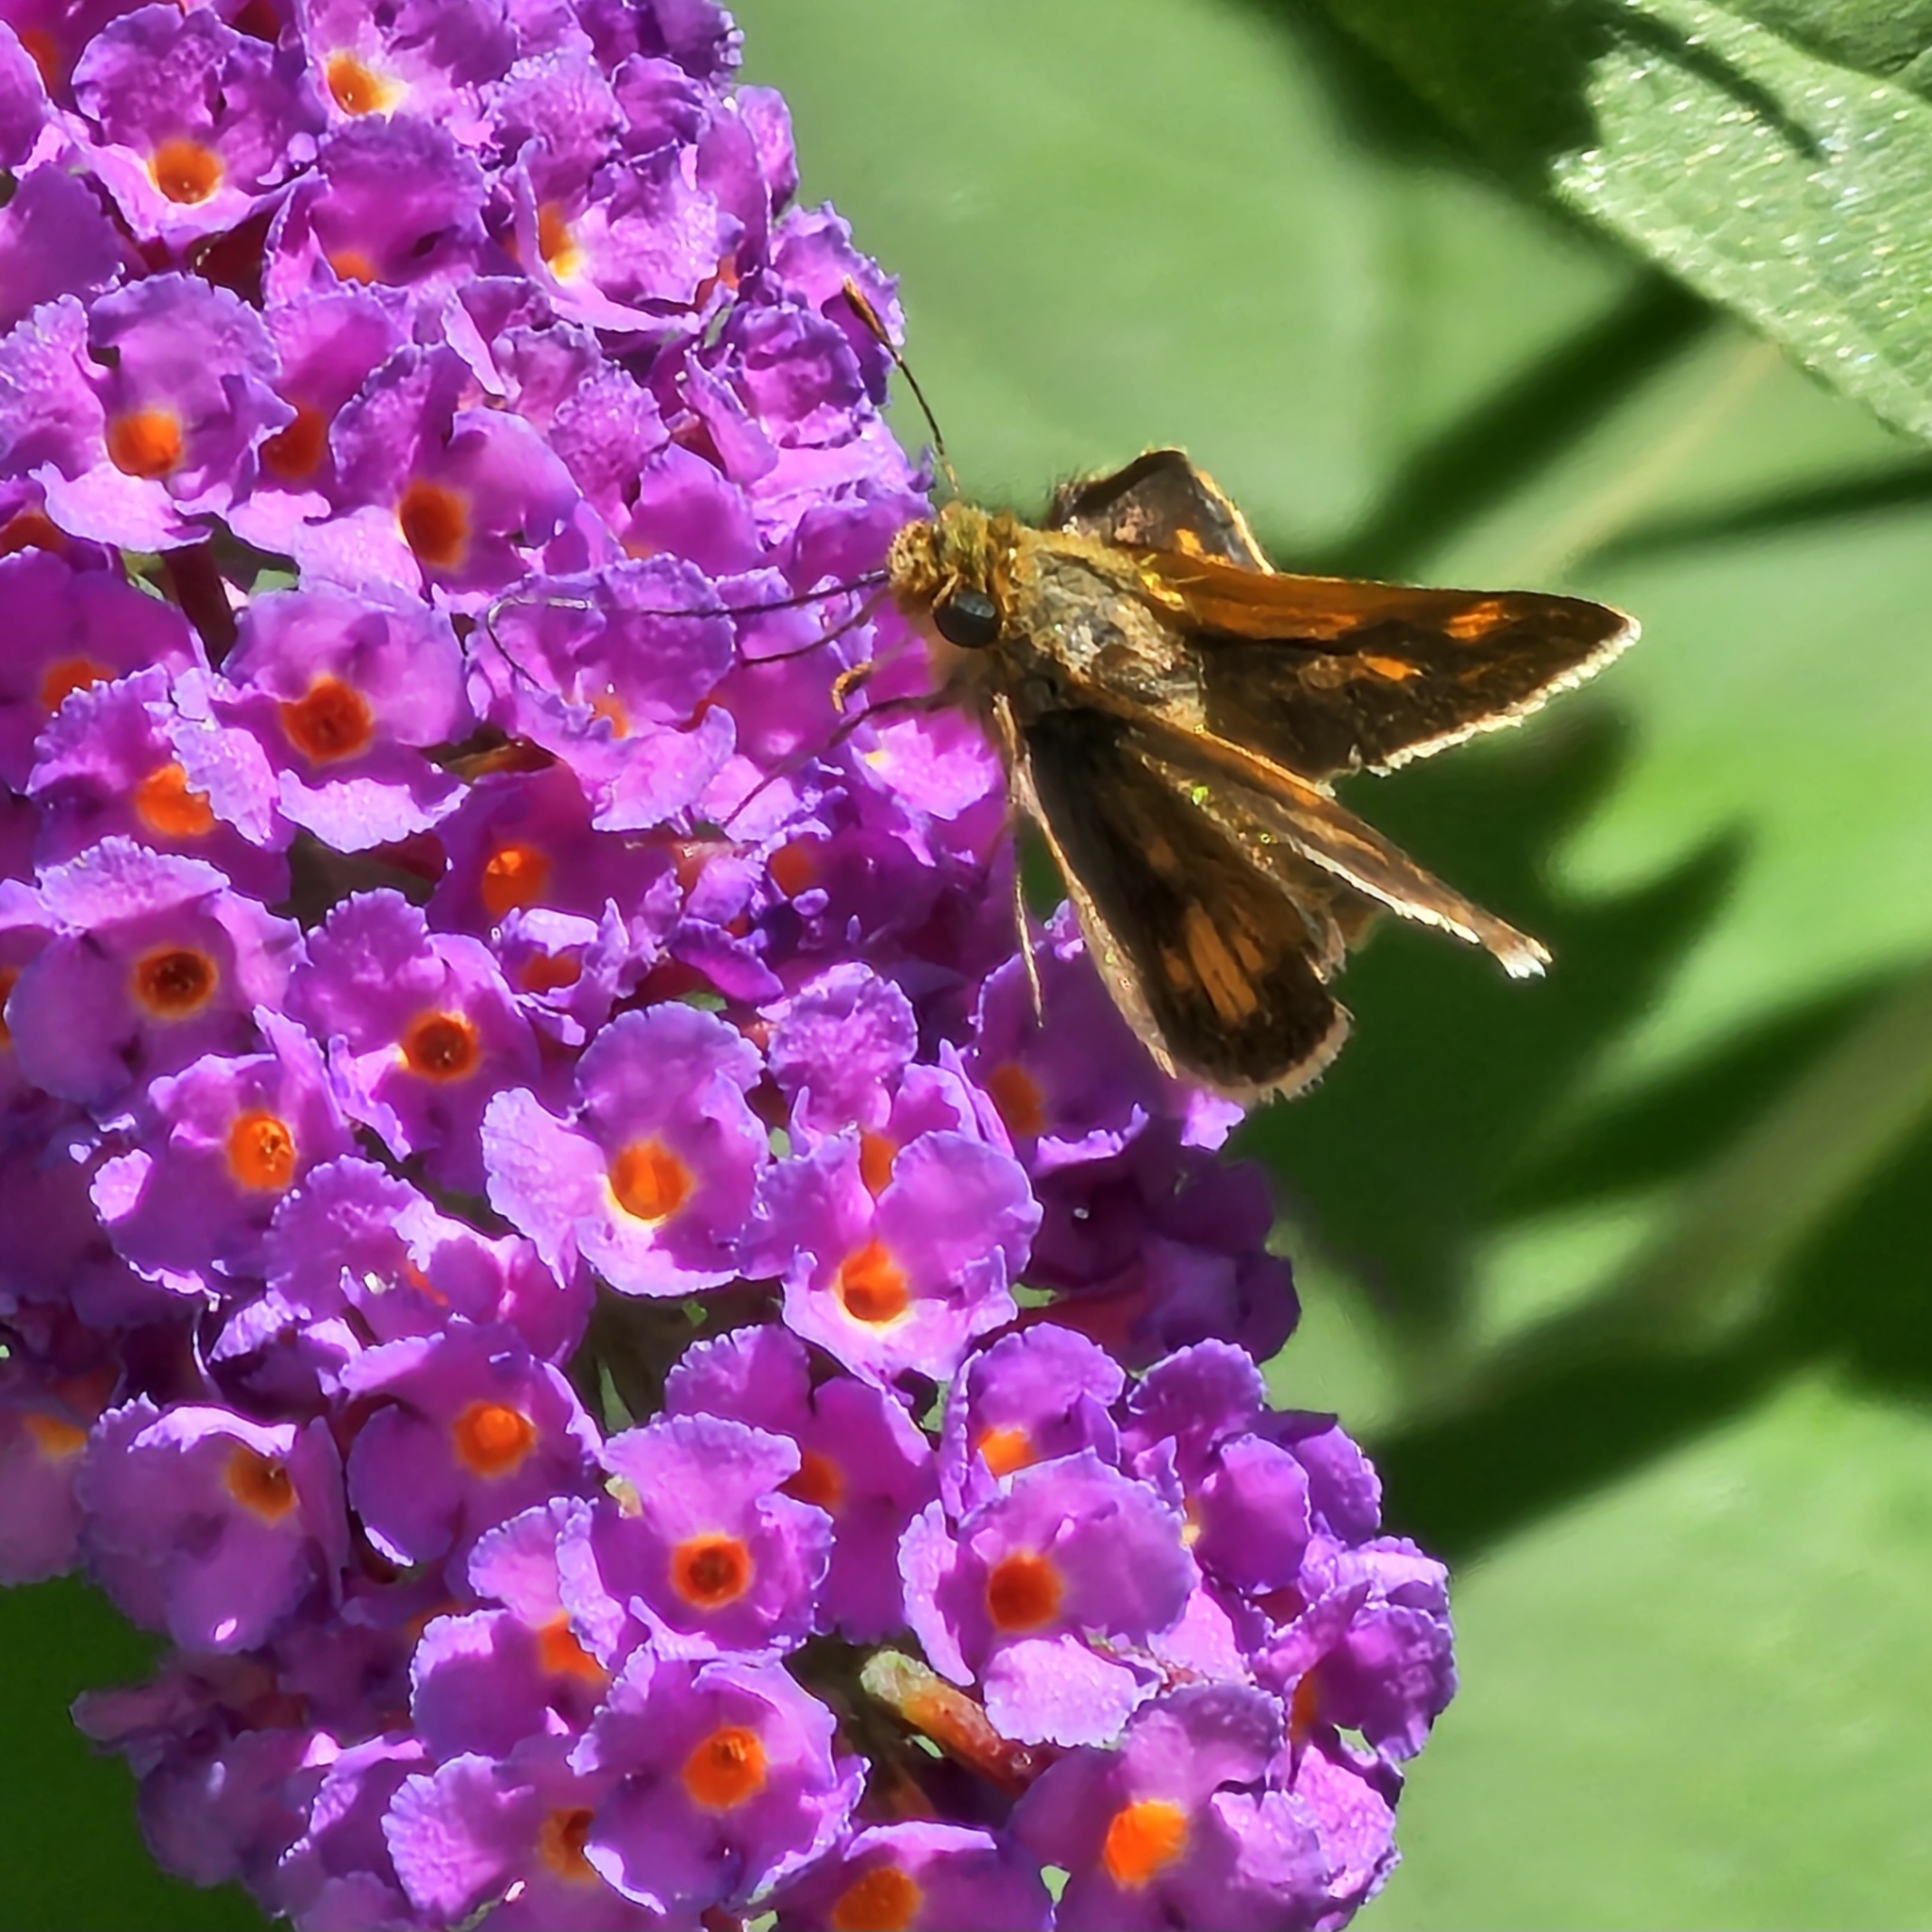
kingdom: Animalia
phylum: Arthropoda
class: Insecta
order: Lepidoptera
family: Hesperiidae
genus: Polites
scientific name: Polites coras
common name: Peck's skipper
